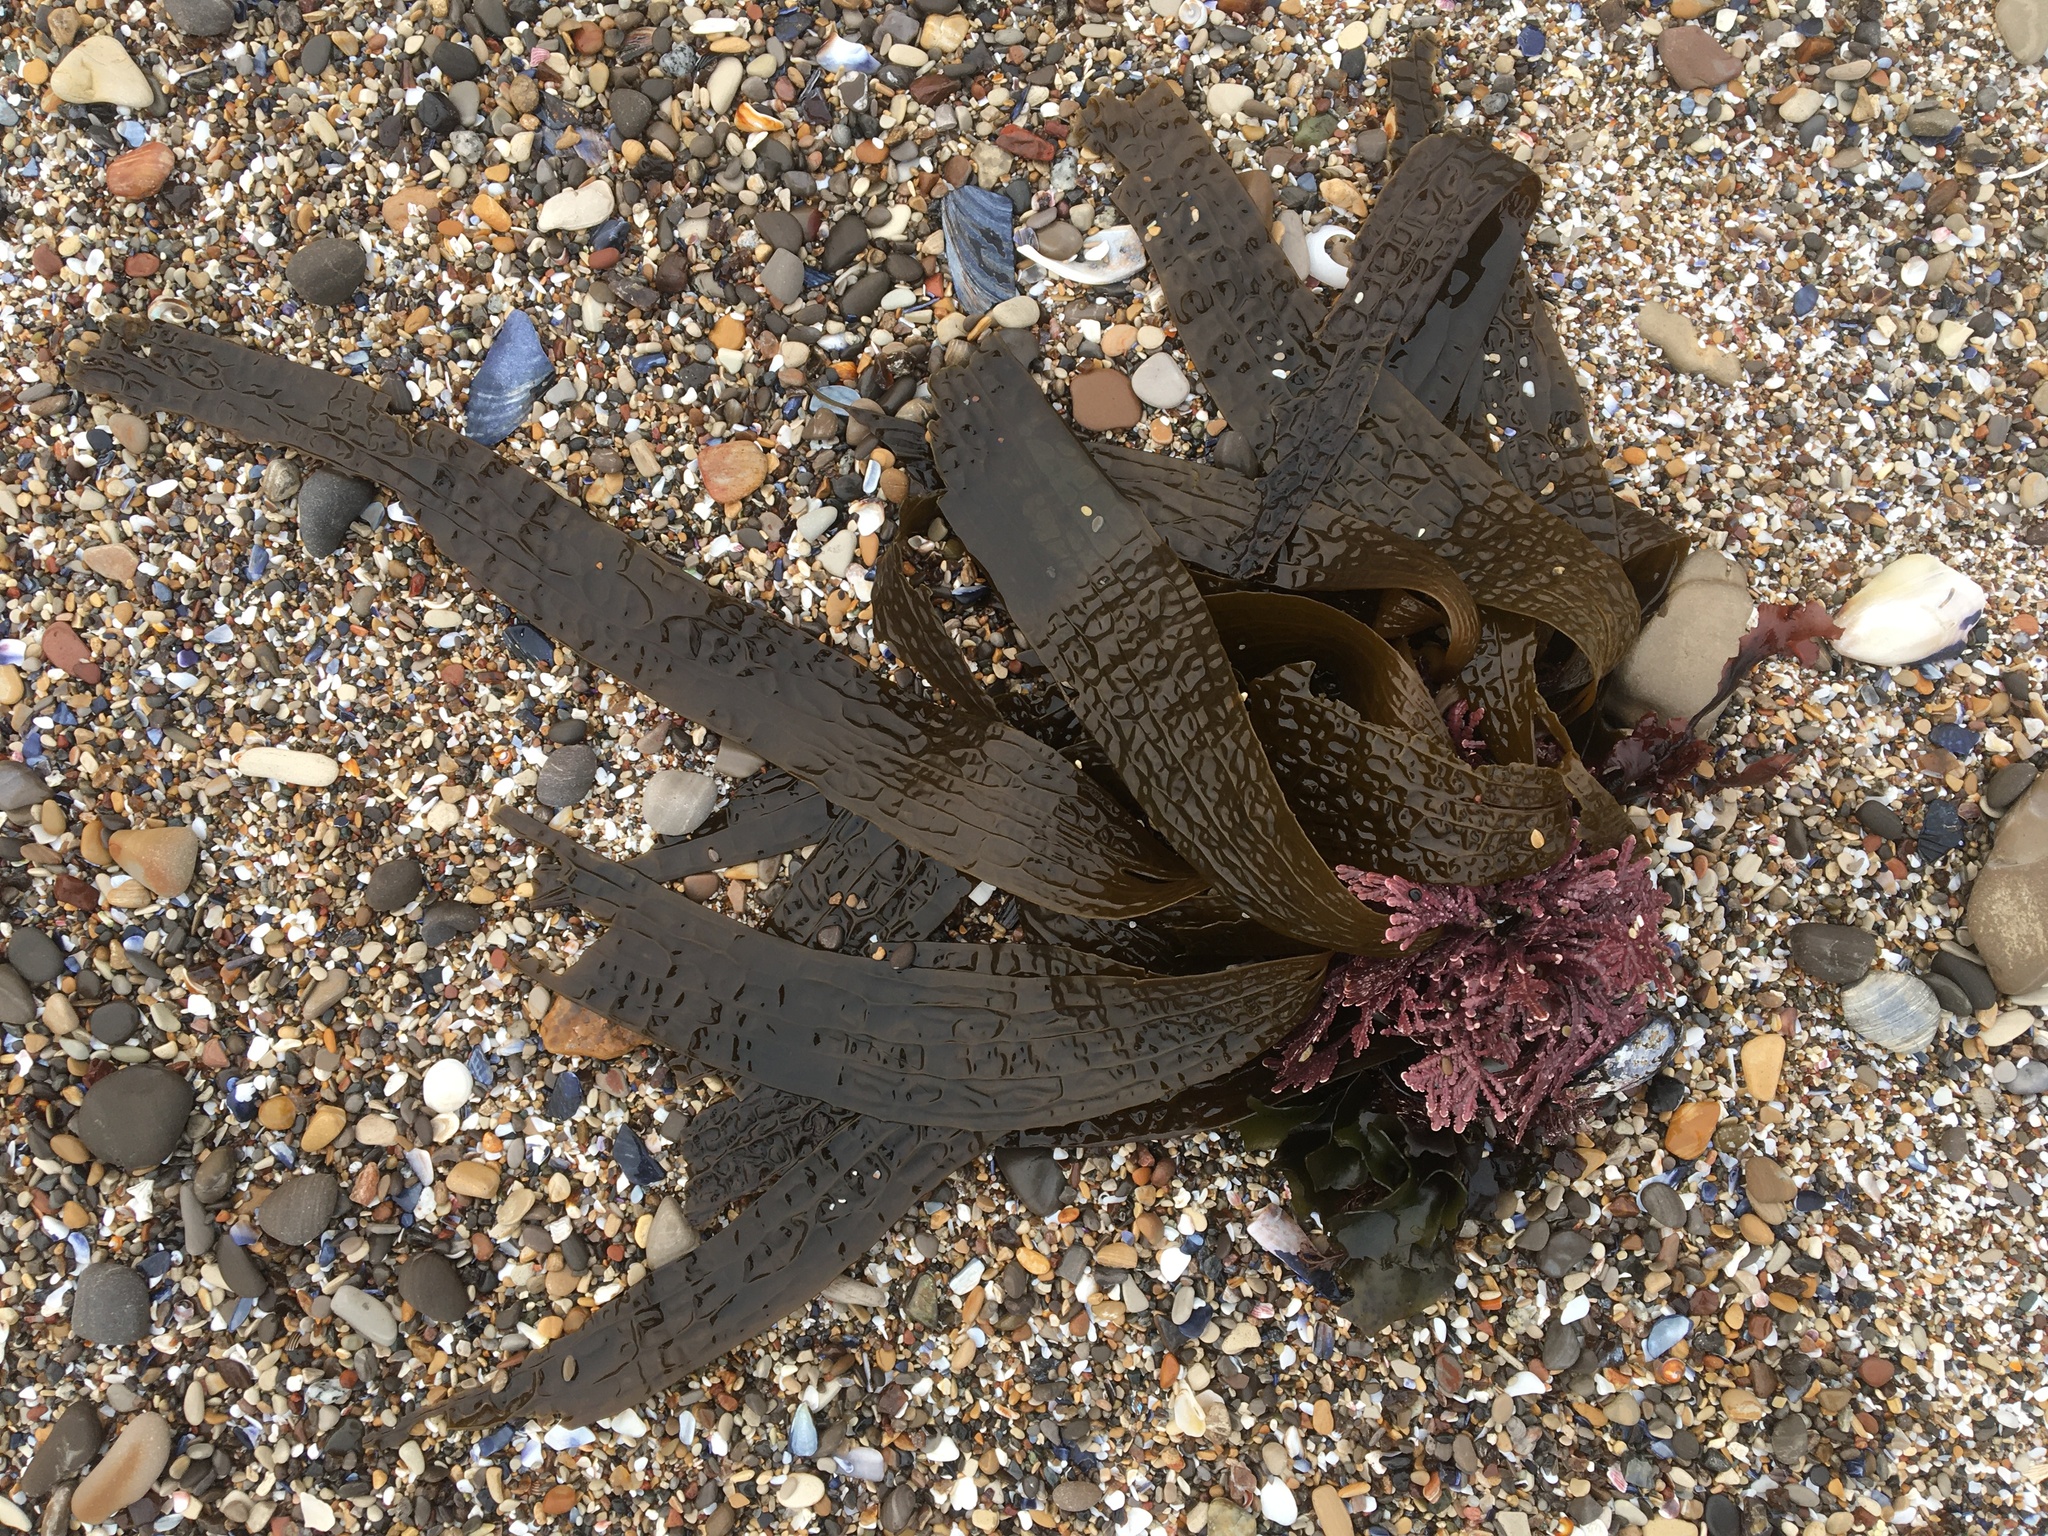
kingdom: Chromista
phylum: Ochrophyta
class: Phaeophyceae
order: Laminariales
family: Costariaceae
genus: Dictyoneurum
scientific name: Dictyoneurum californicum
